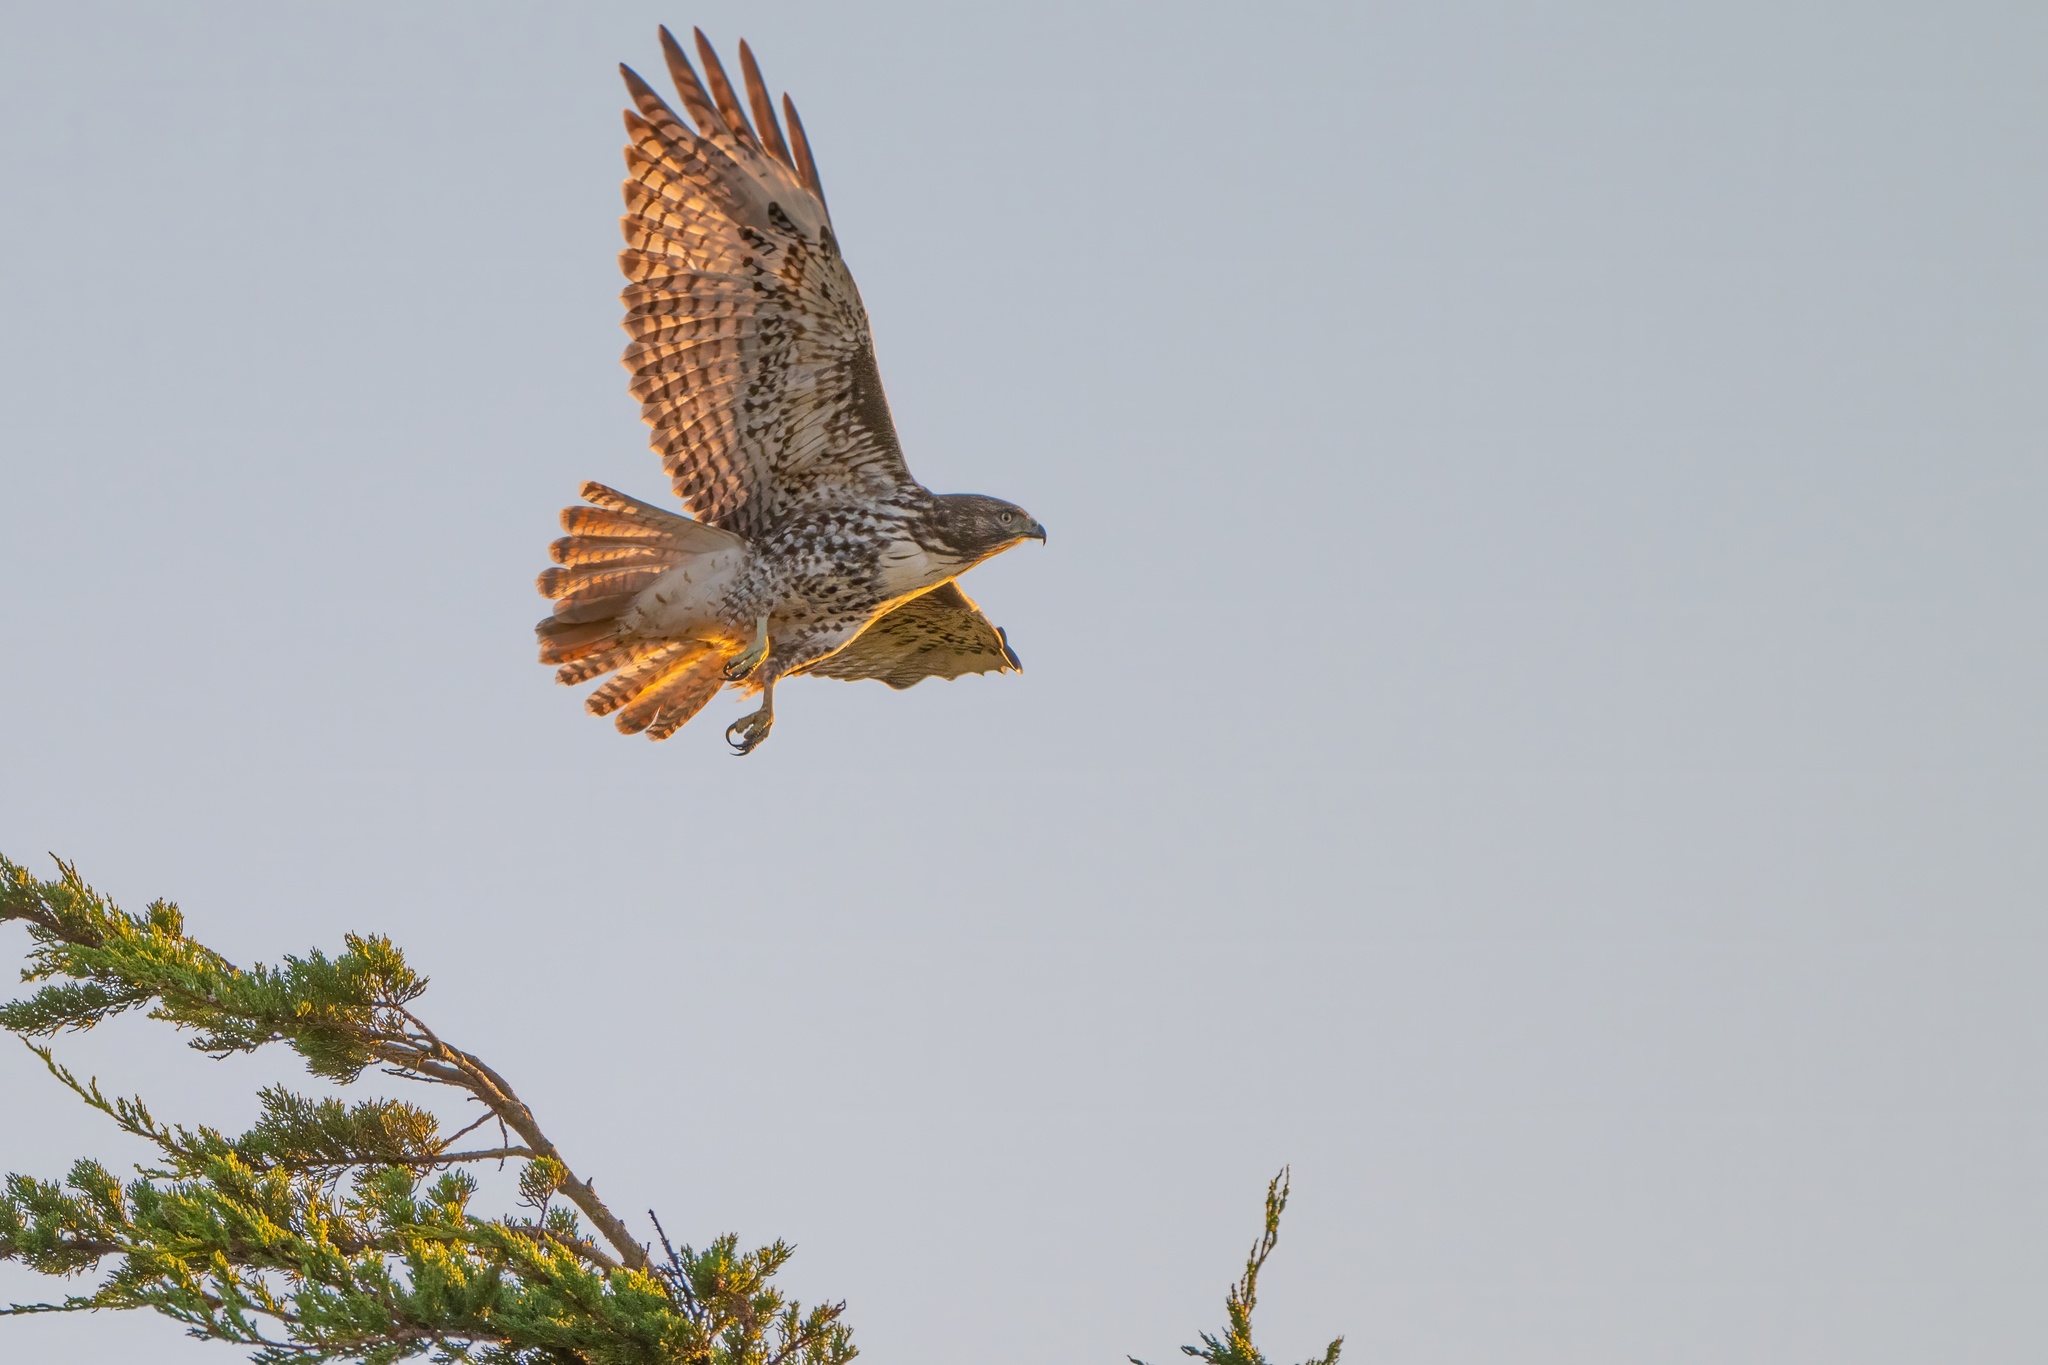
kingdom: Animalia
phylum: Chordata
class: Aves
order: Accipitriformes
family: Accipitridae
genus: Buteo
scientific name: Buteo jamaicensis
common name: Red-tailed hawk
